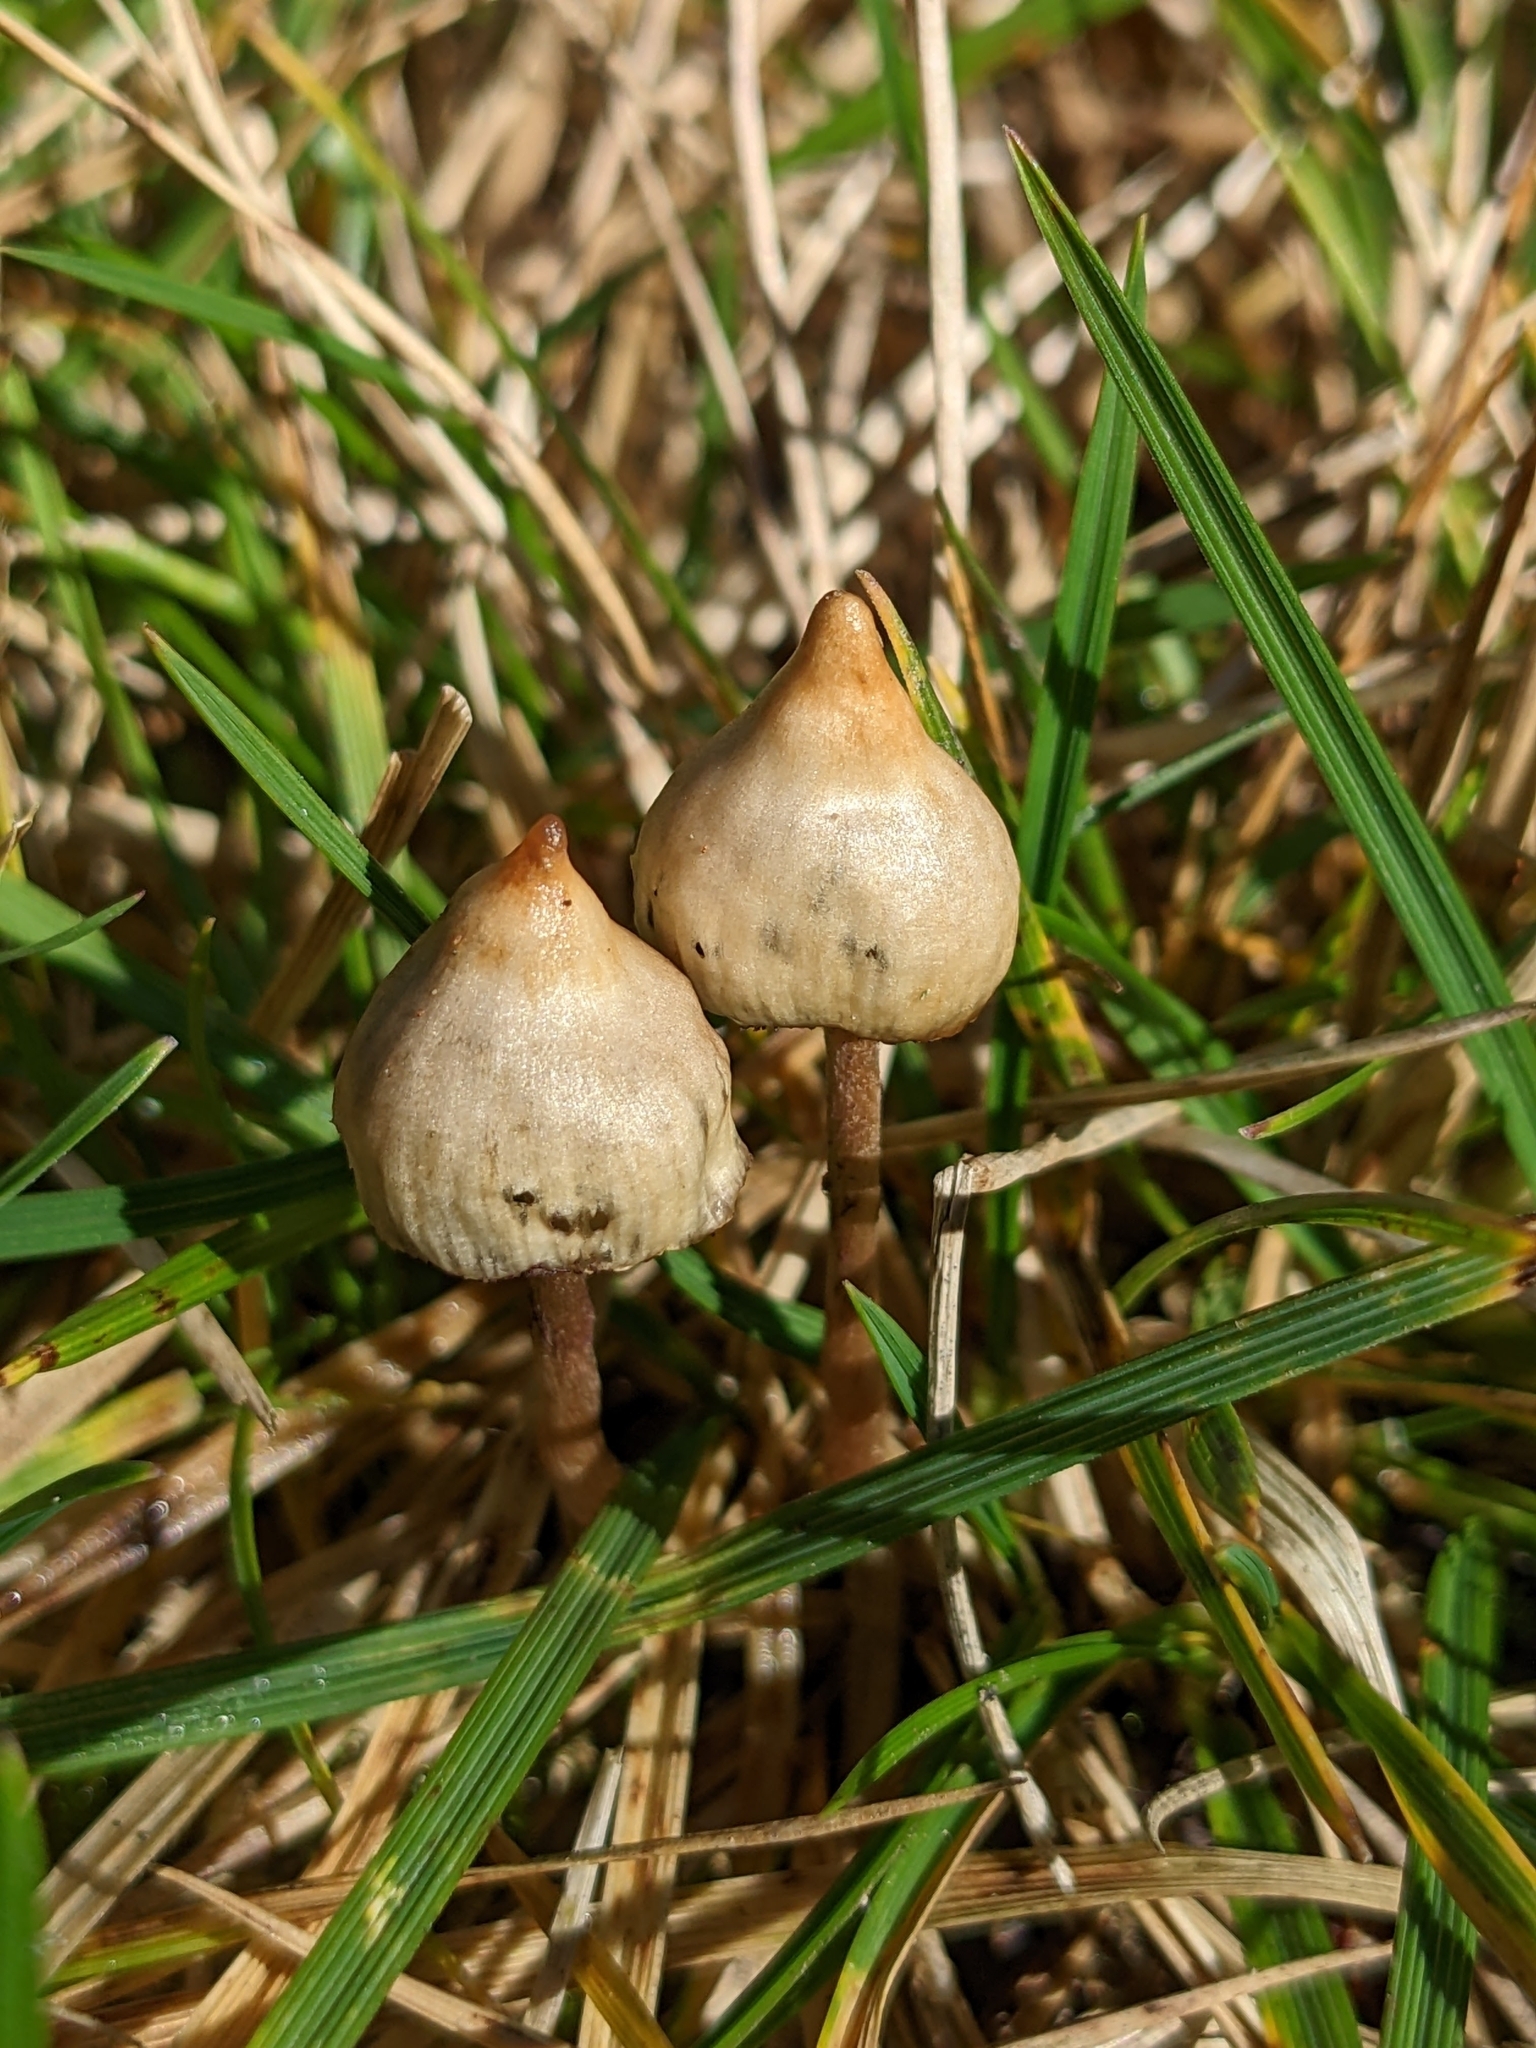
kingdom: Fungi
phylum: Basidiomycota
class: Agaricomycetes
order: Agaricales
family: Hymenogastraceae
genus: Psilocybe
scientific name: Psilocybe semilanceata
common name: Liberty cap
